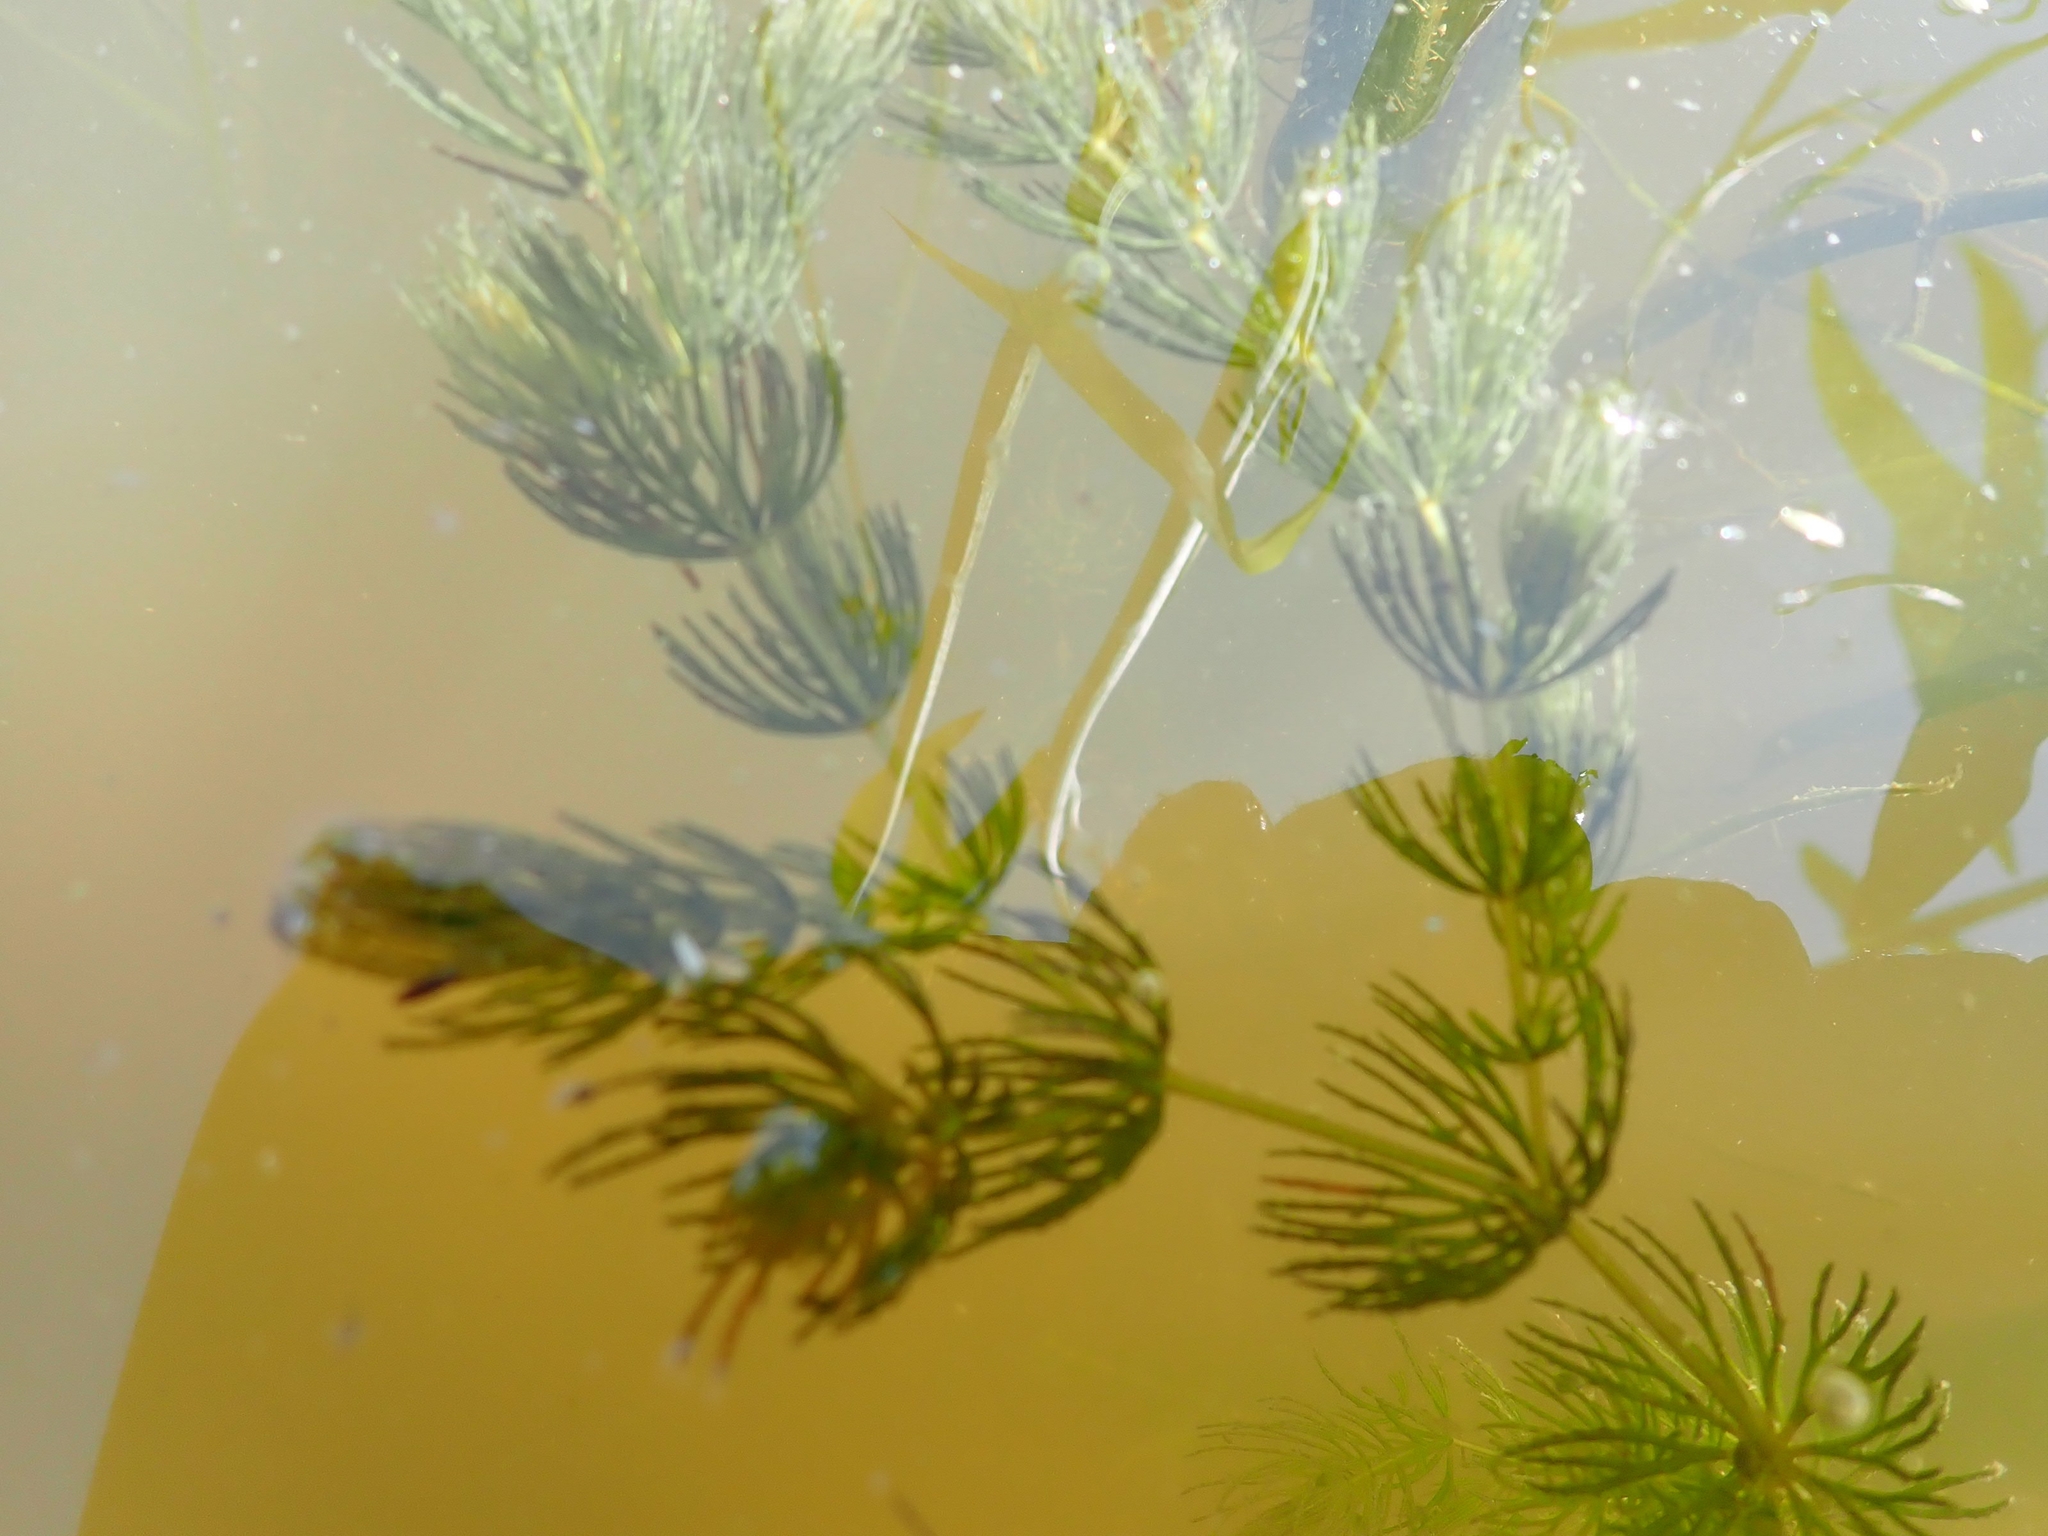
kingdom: Plantae
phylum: Tracheophyta
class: Magnoliopsida
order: Ceratophyllales
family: Ceratophyllaceae
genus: Ceratophyllum
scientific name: Ceratophyllum demersum
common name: Rigid hornwort
